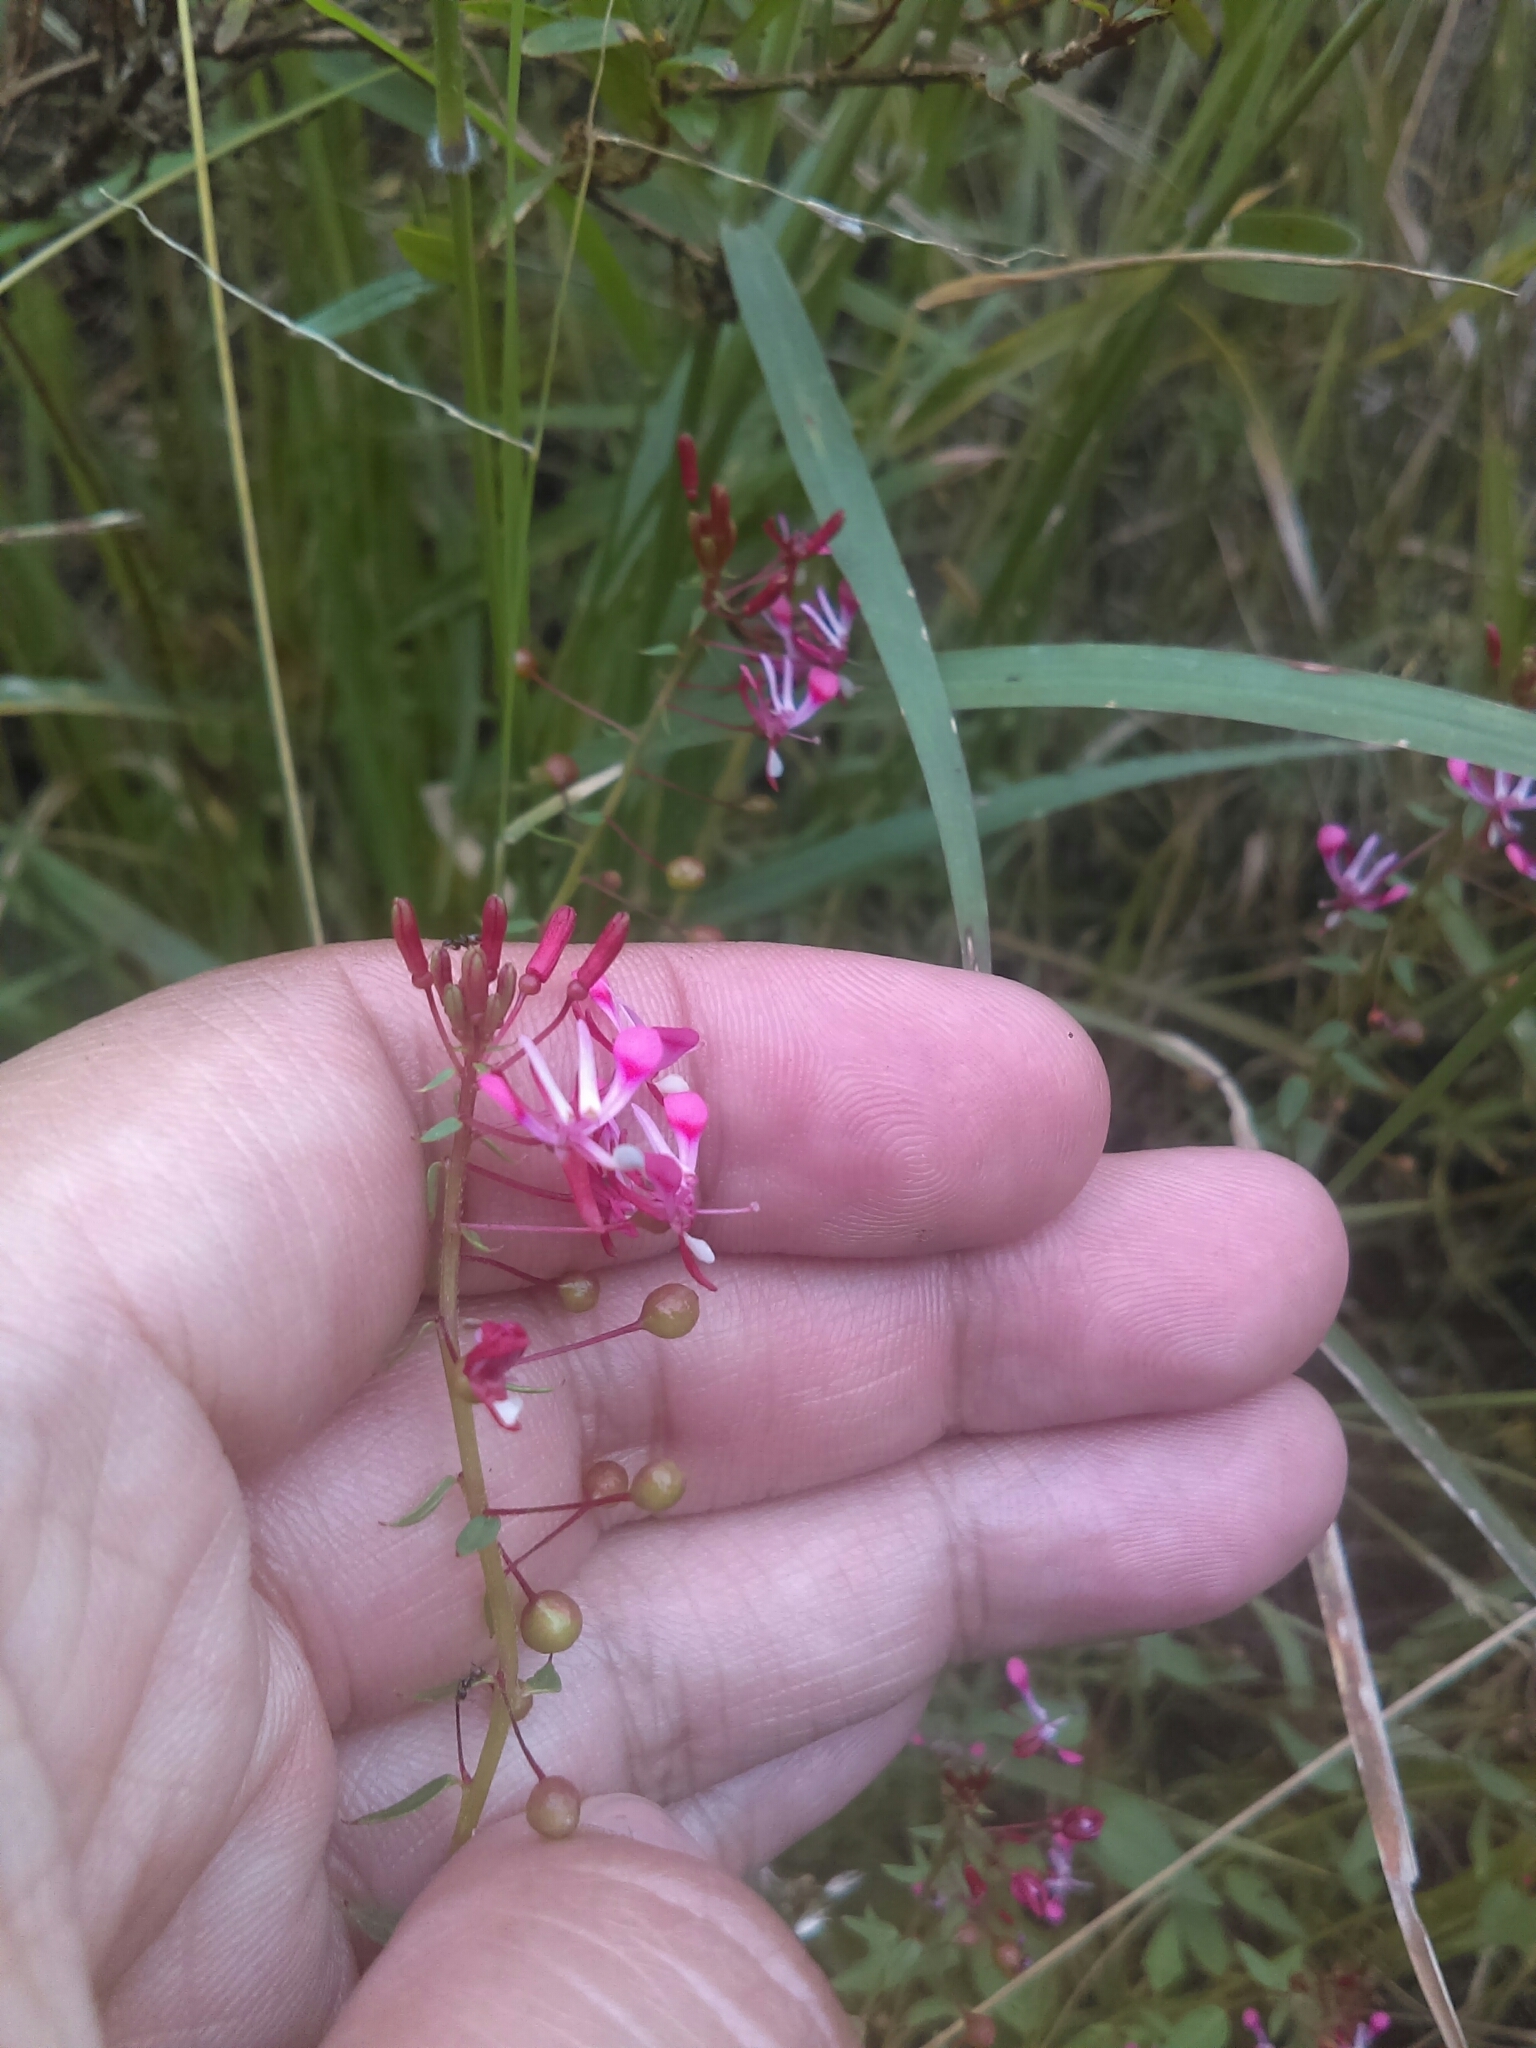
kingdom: Plantae
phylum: Tracheophyta
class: Magnoliopsida
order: Myrtales
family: Onagraceae
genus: Lopezia
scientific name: Lopezia racemosa
